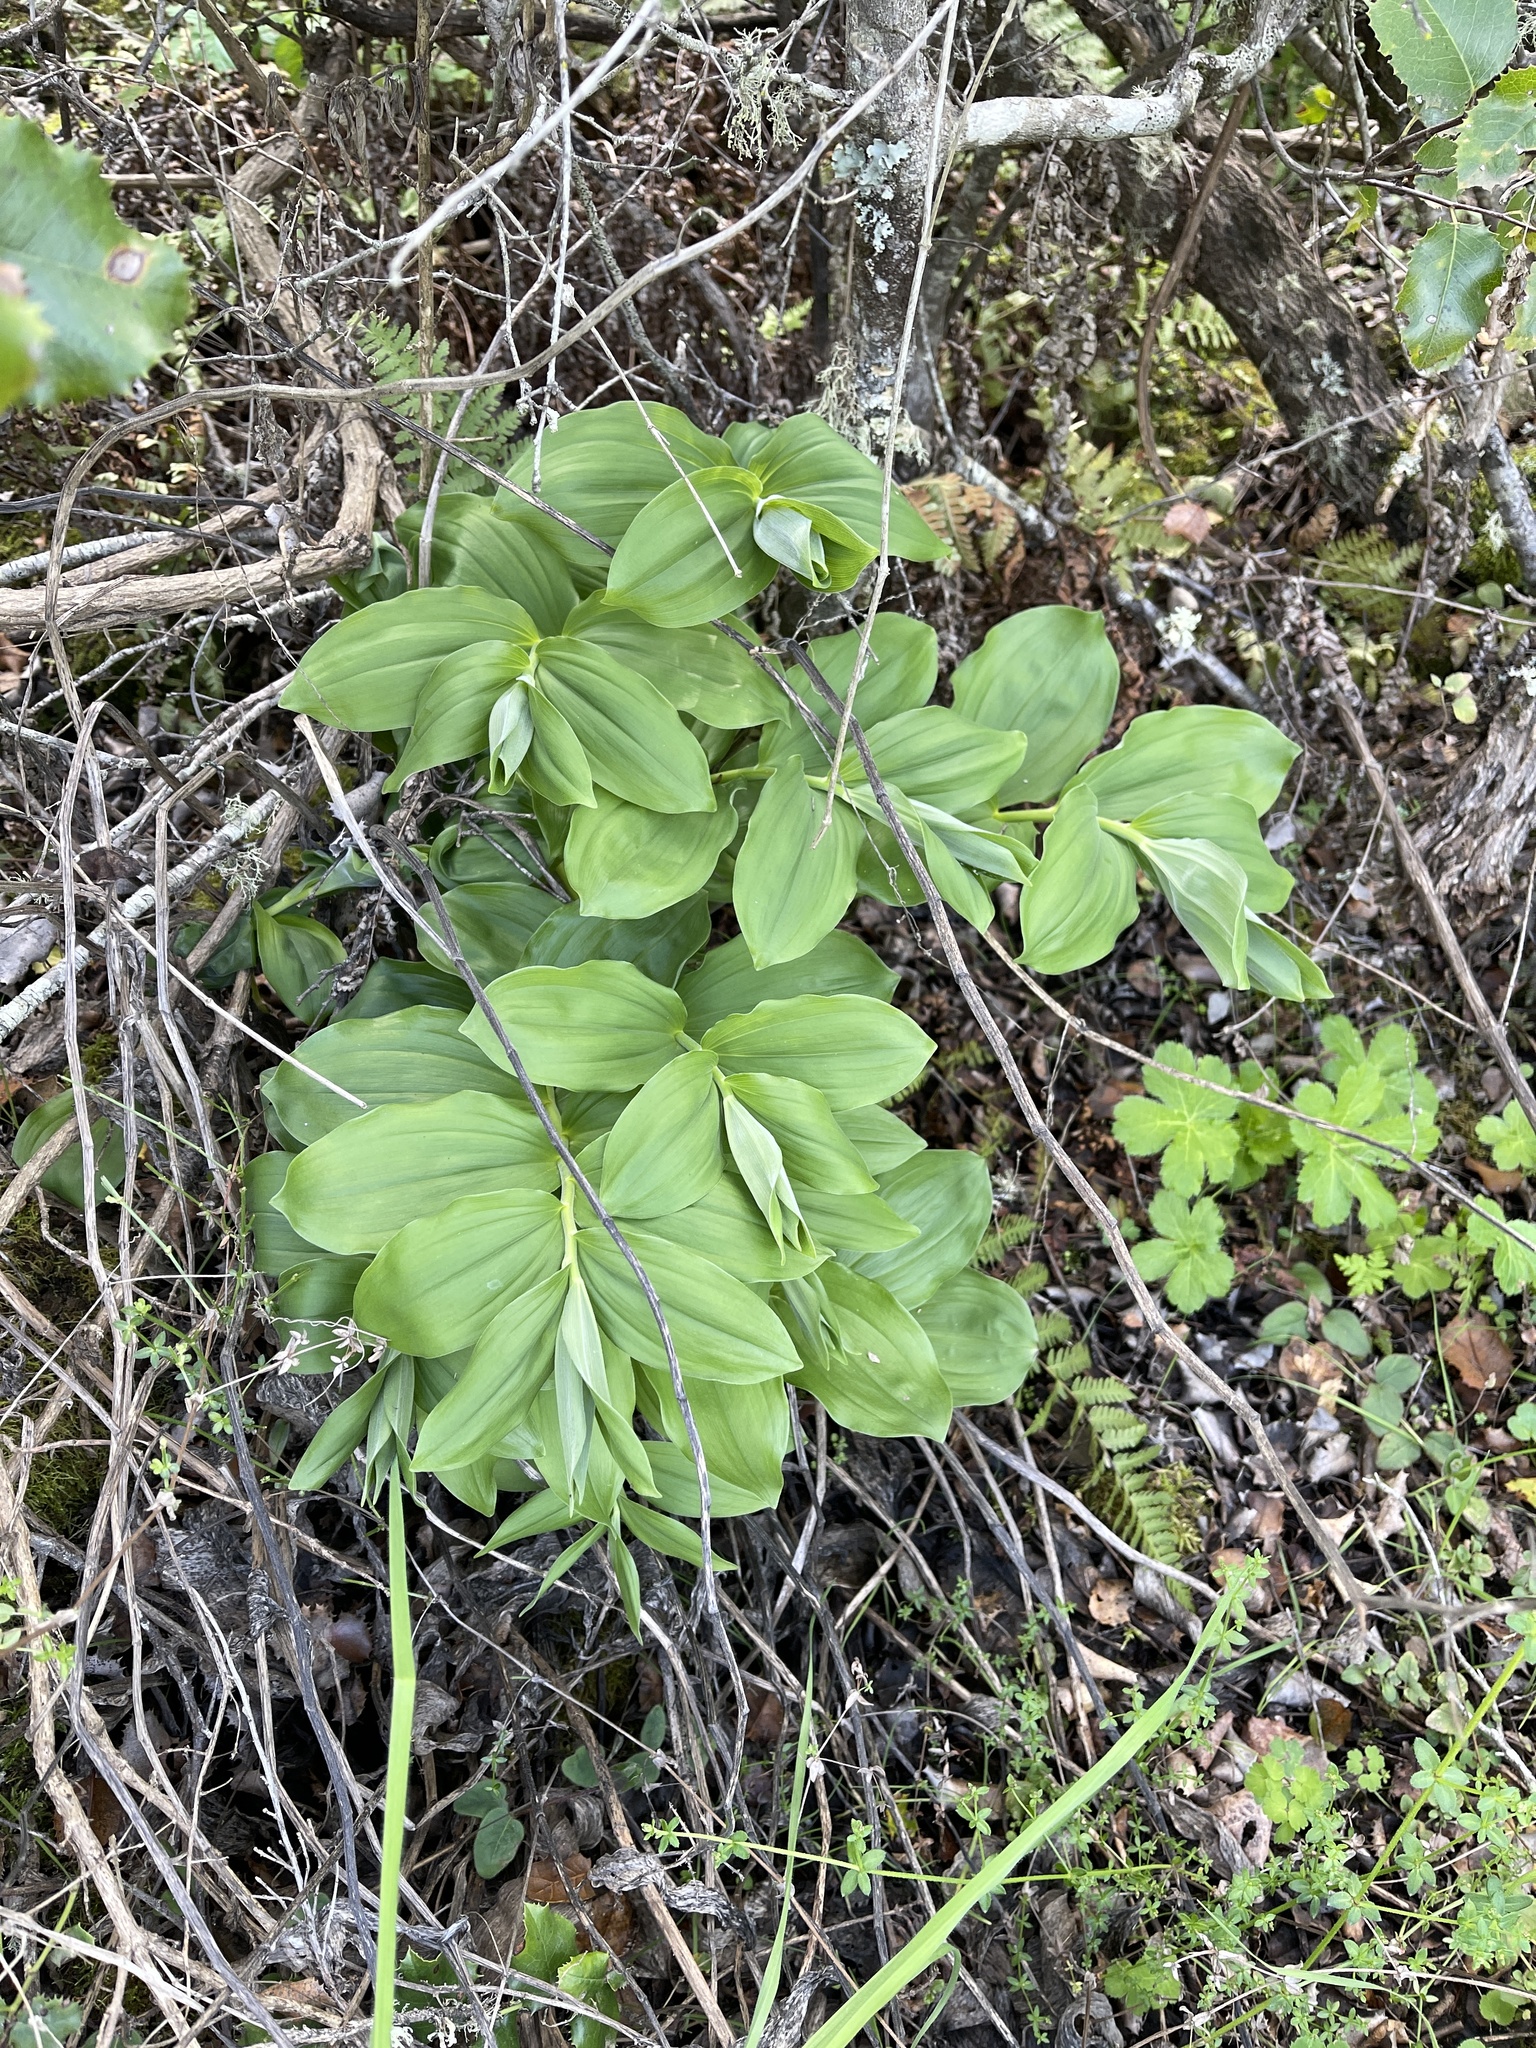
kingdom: Plantae
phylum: Tracheophyta
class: Liliopsida
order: Asparagales
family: Asparagaceae
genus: Maianthemum
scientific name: Maianthemum racemosum
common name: False spikenard
